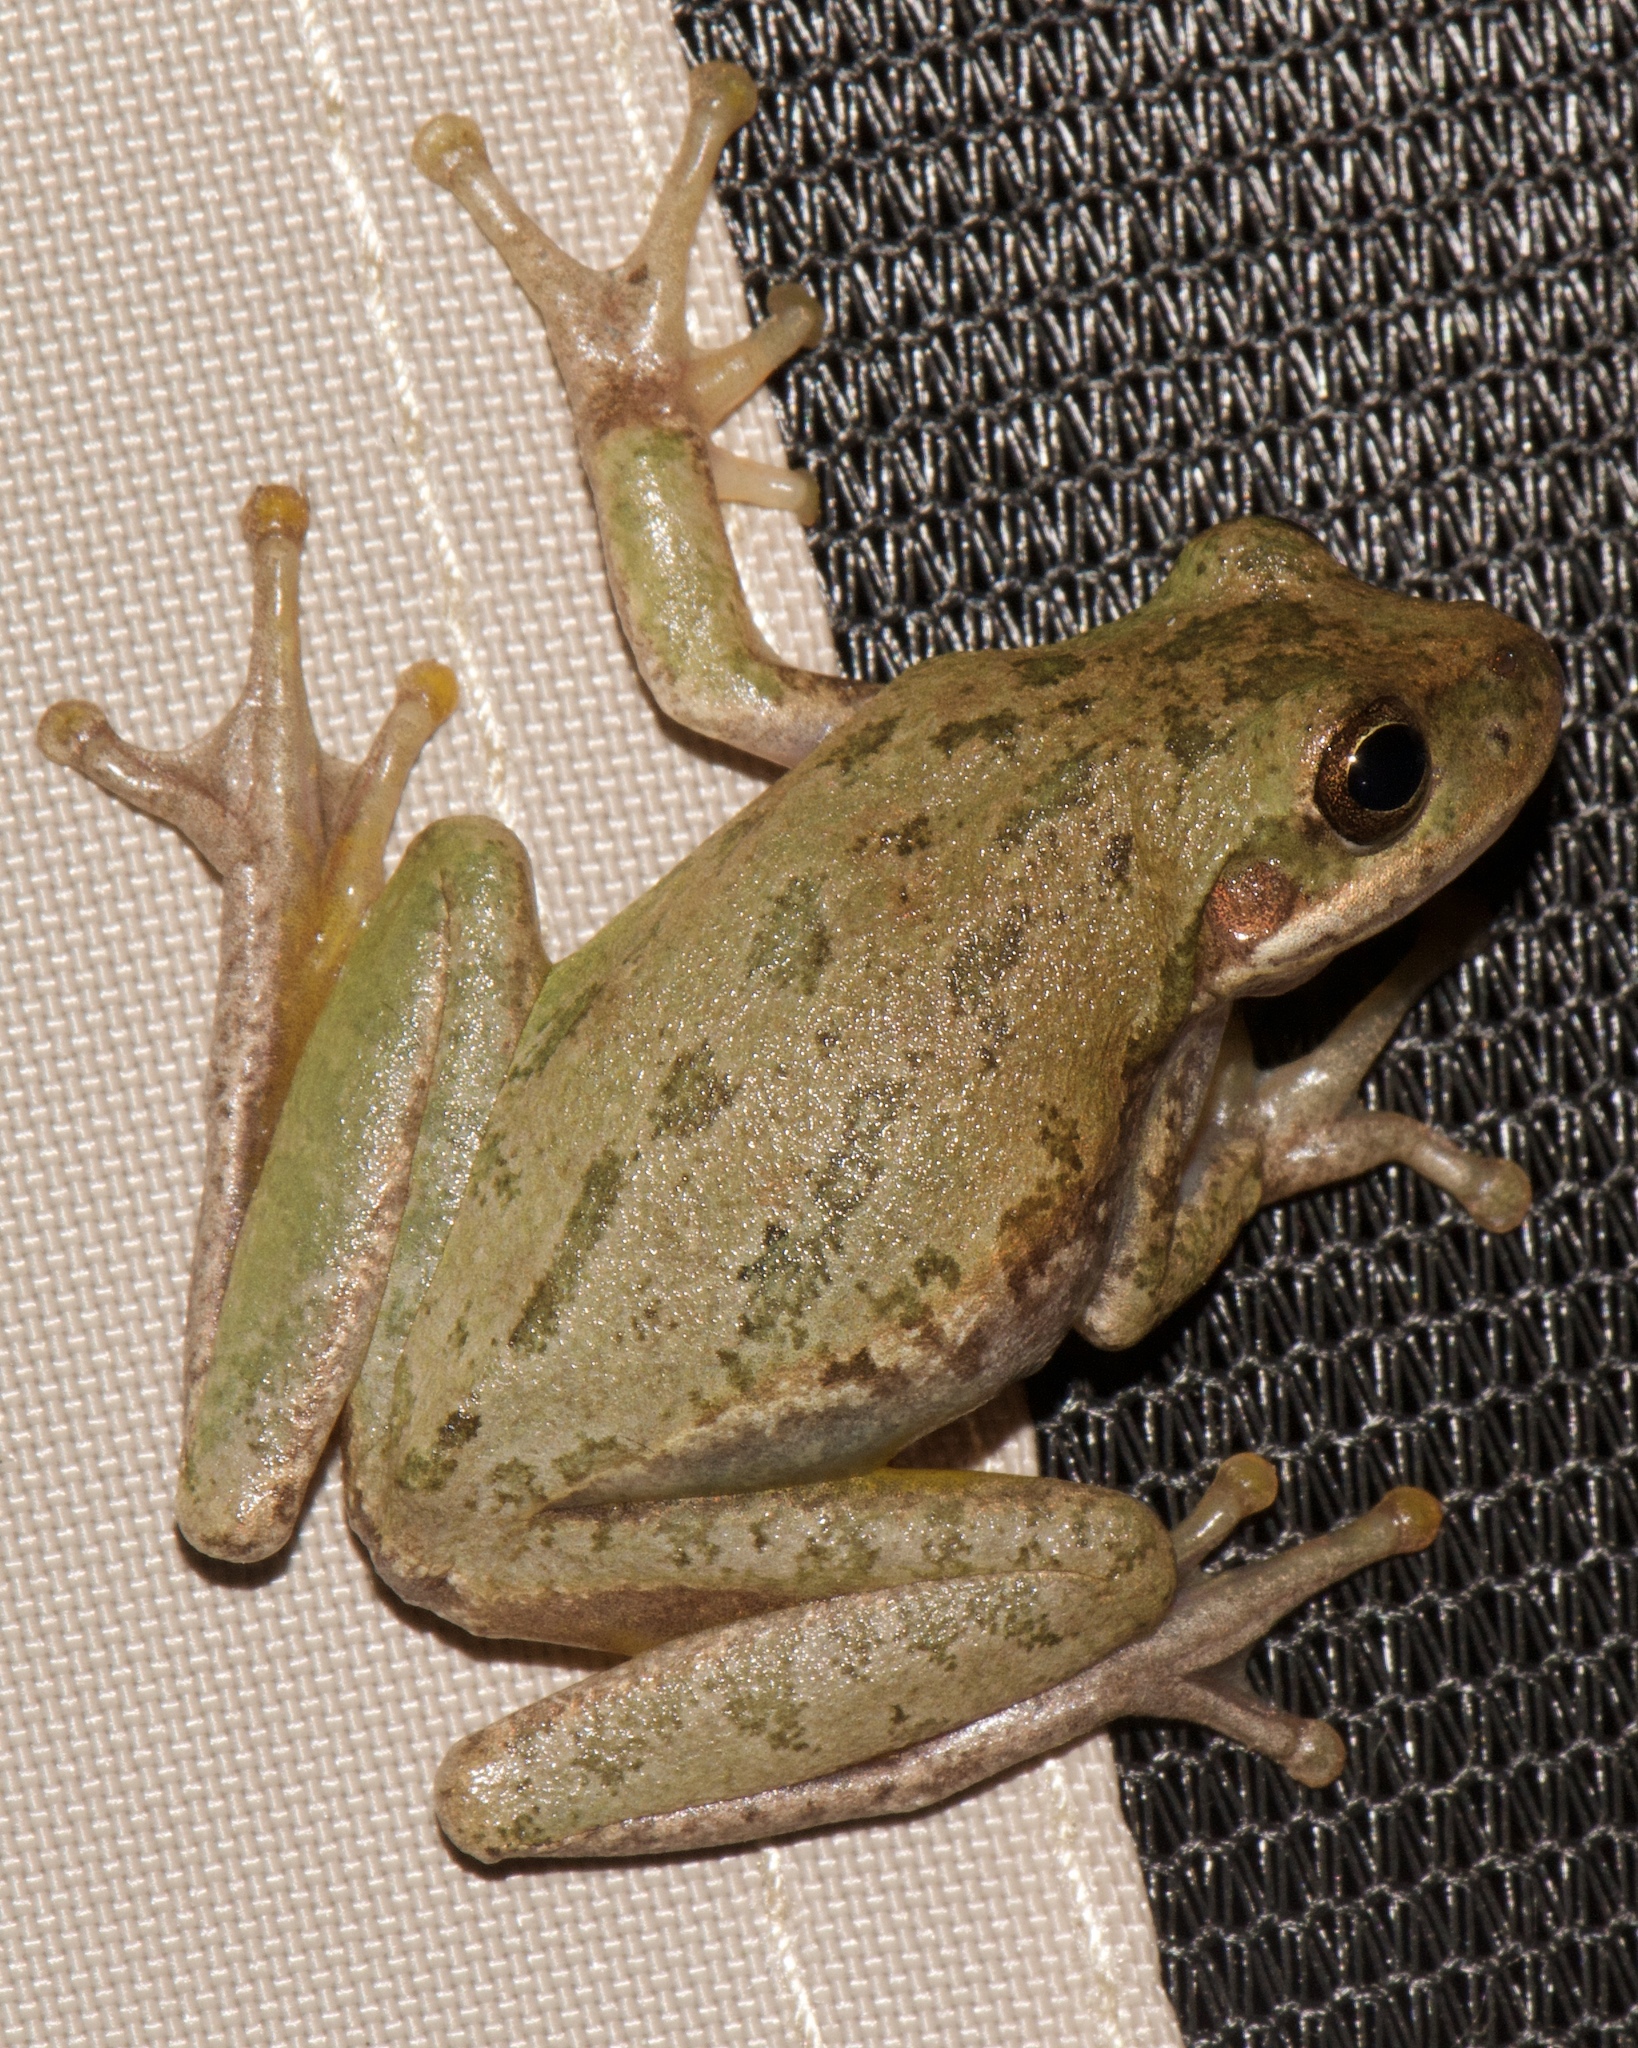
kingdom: Animalia
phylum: Chordata
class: Amphibia
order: Anura
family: Hylidae
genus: Dryophytes
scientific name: Dryophytes squirellus
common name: Squirrel treefrog
